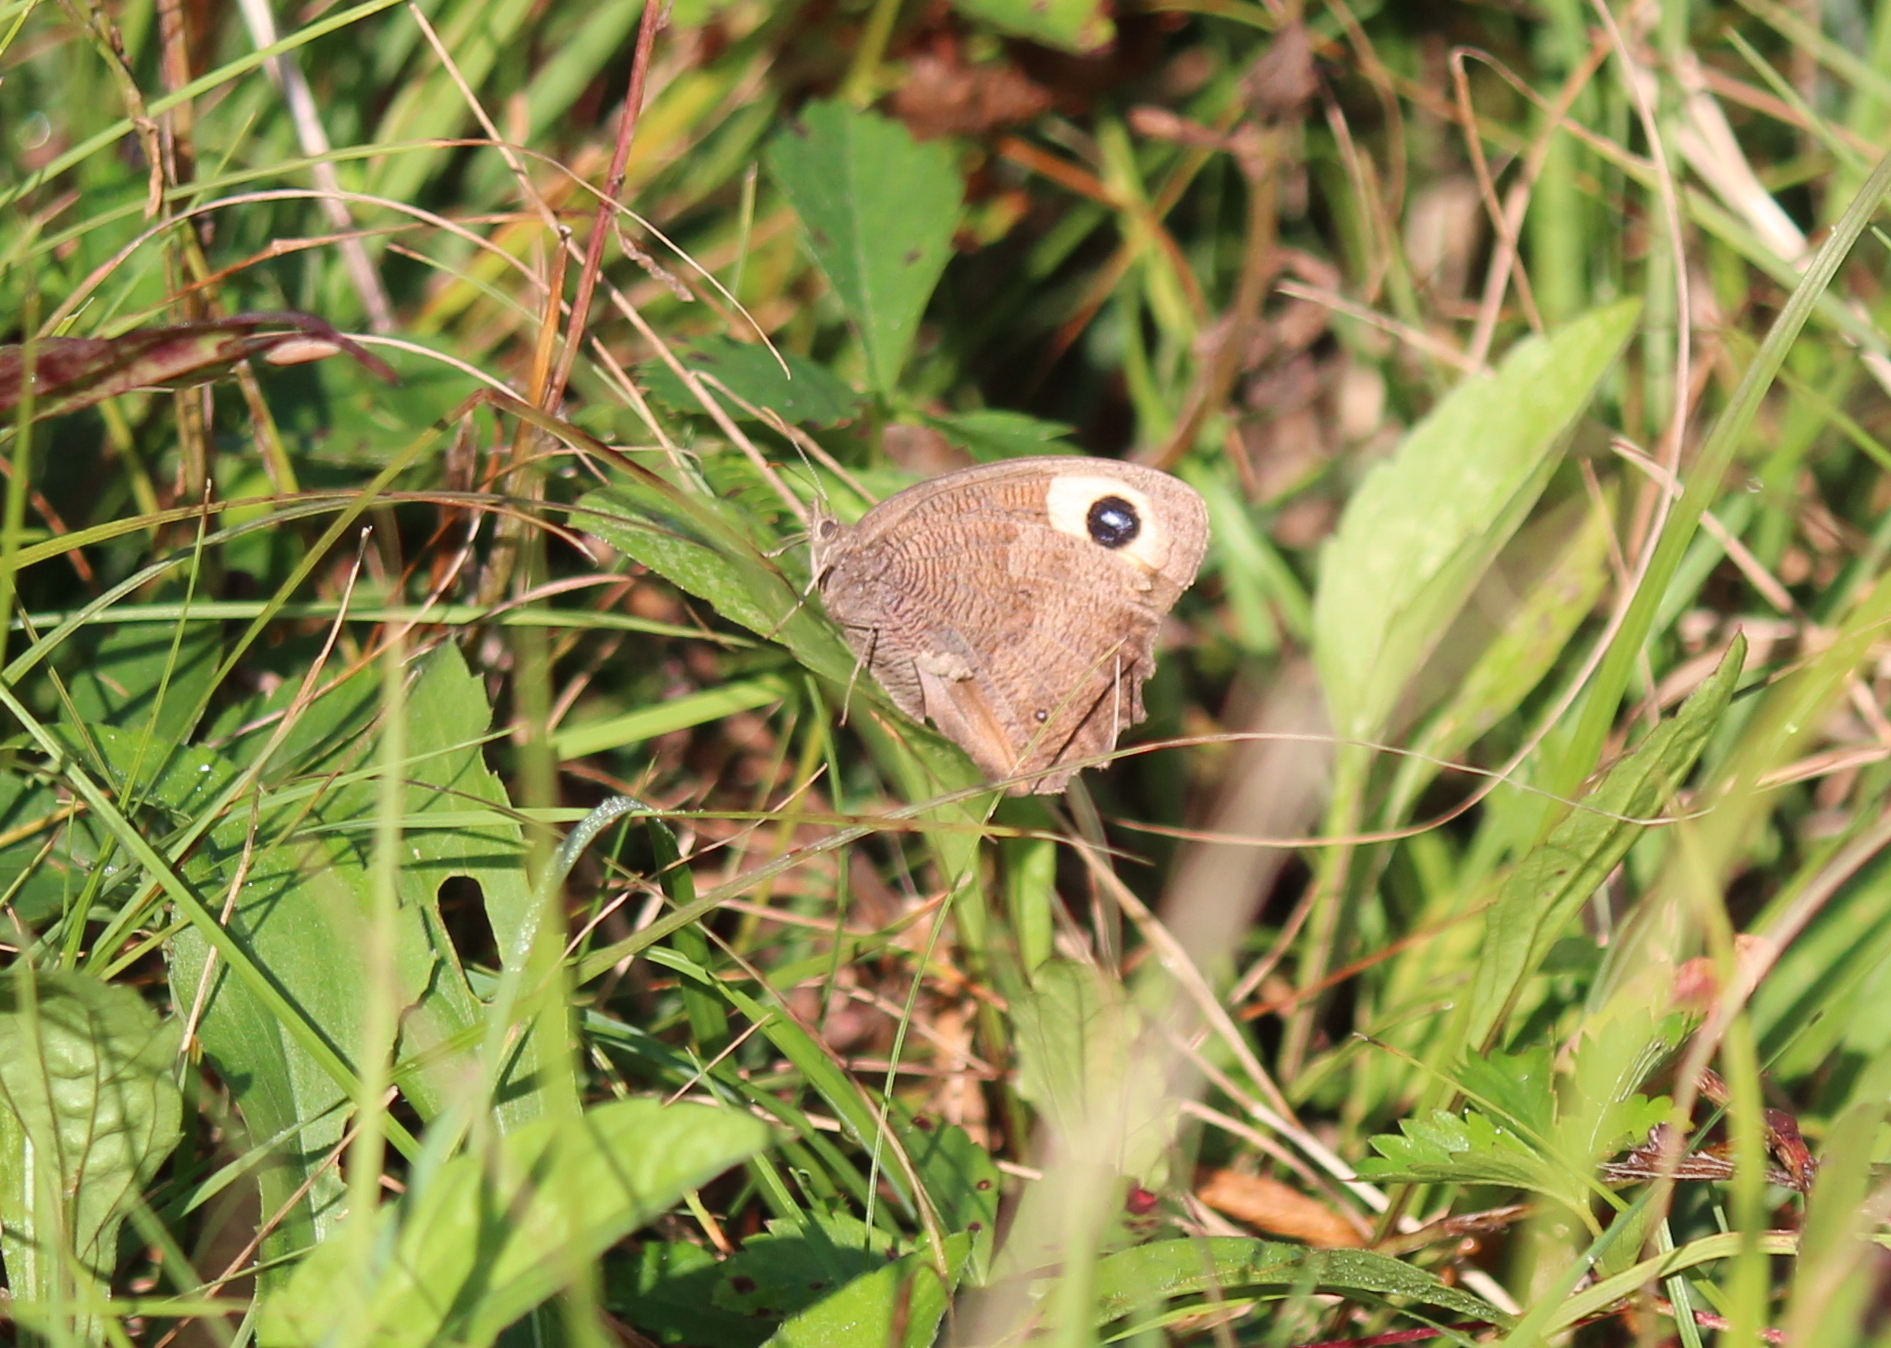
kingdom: Animalia
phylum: Arthropoda
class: Insecta
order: Lepidoptera
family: Nymphalidae
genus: Cercyonis
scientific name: Cercyonis pegala
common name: Common wood-nymph
